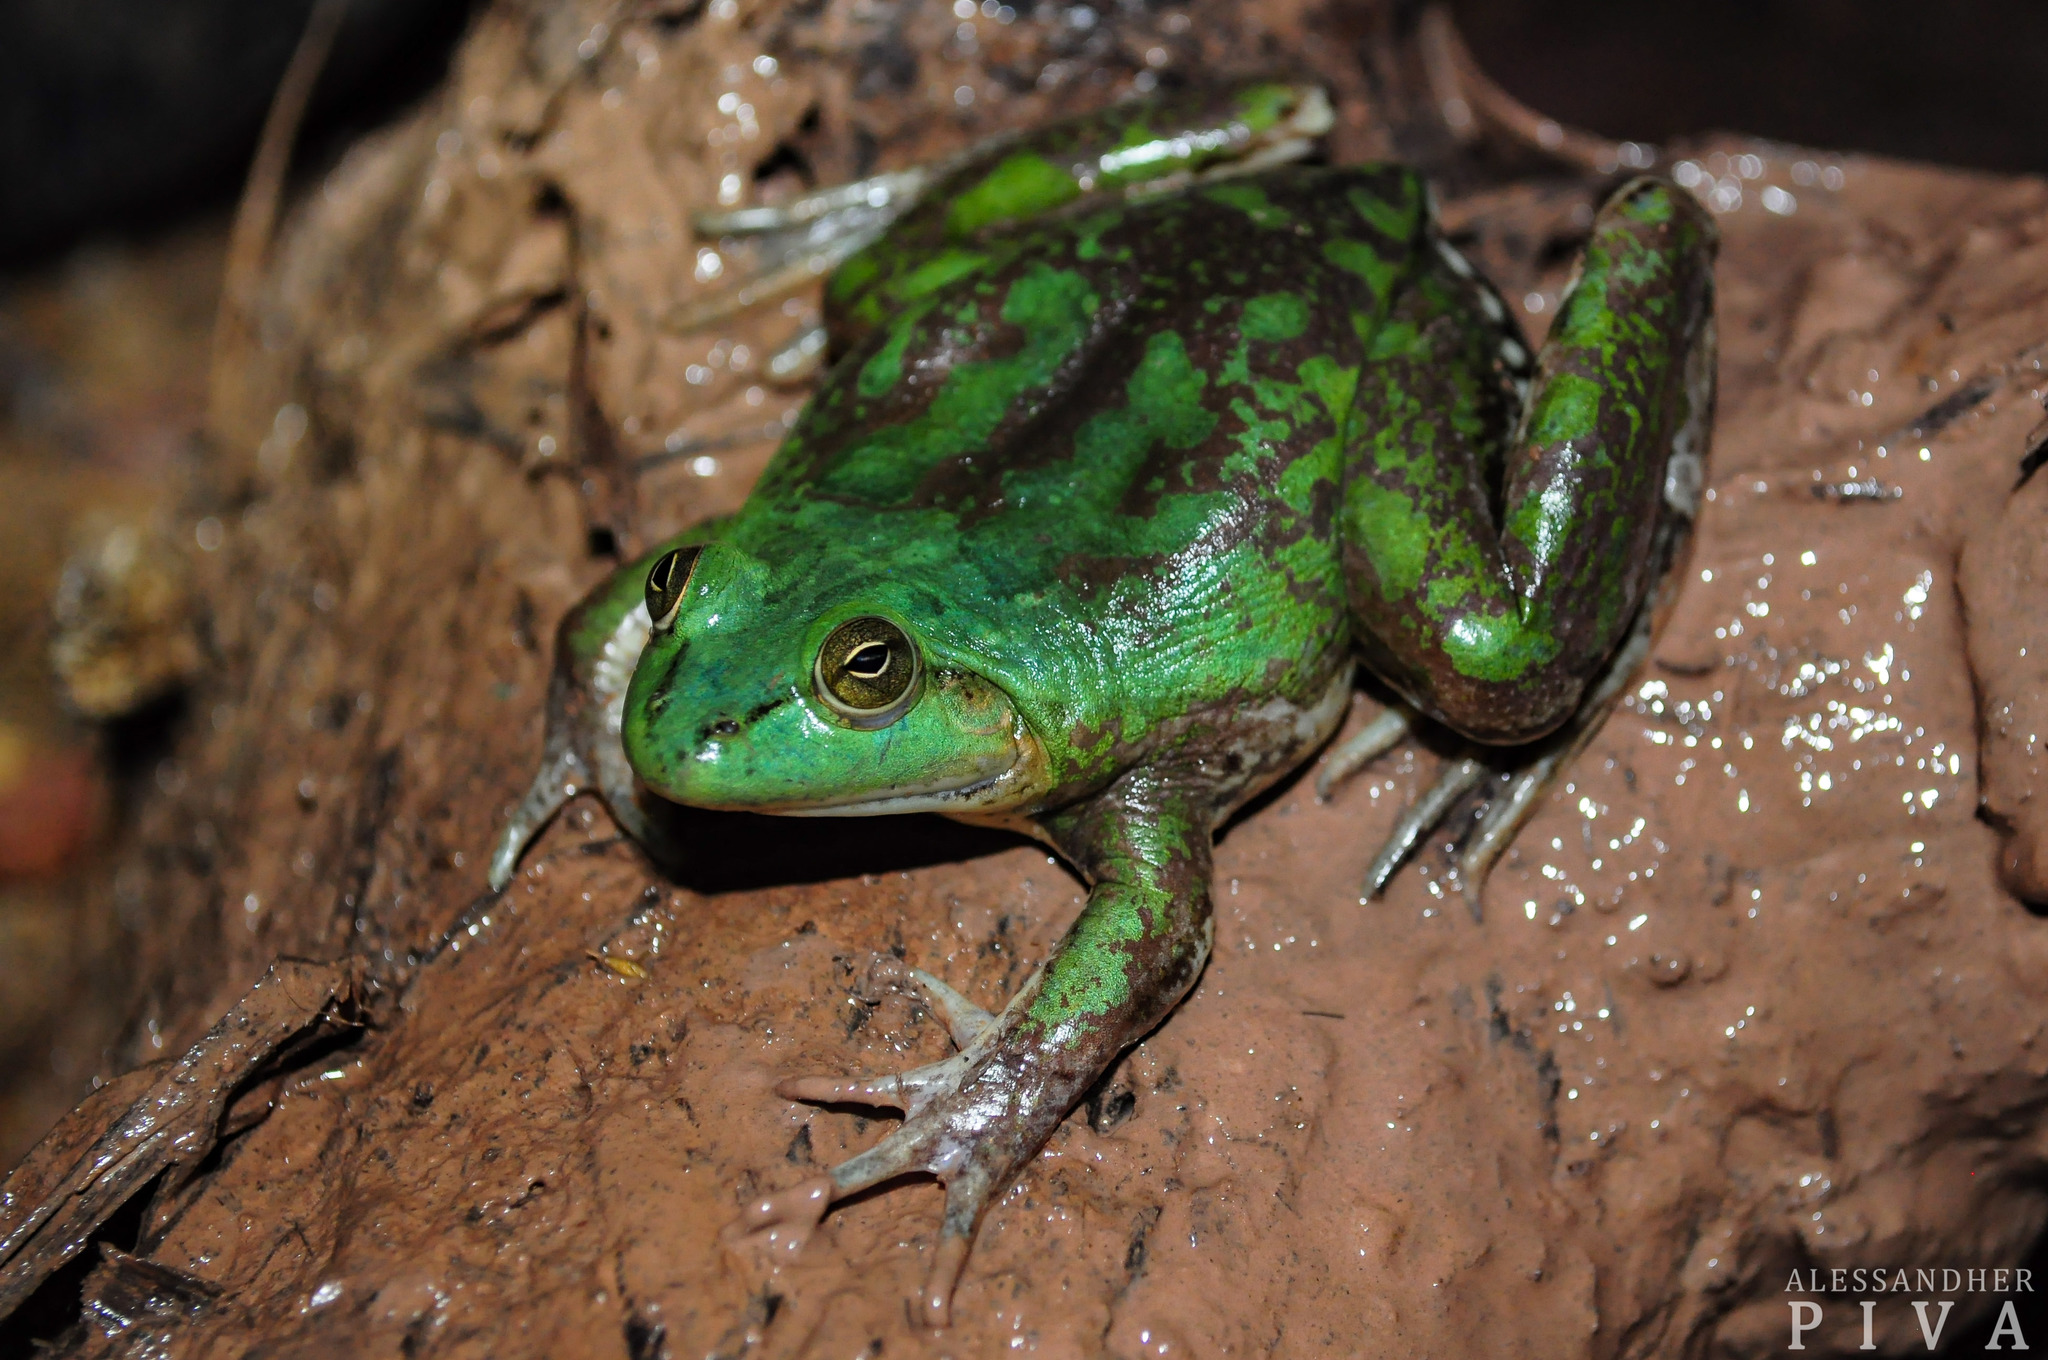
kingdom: Animalia
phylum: Chordata
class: Amphibia
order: Anura
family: Hylidae
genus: Pseudis
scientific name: Pseudis platensis
